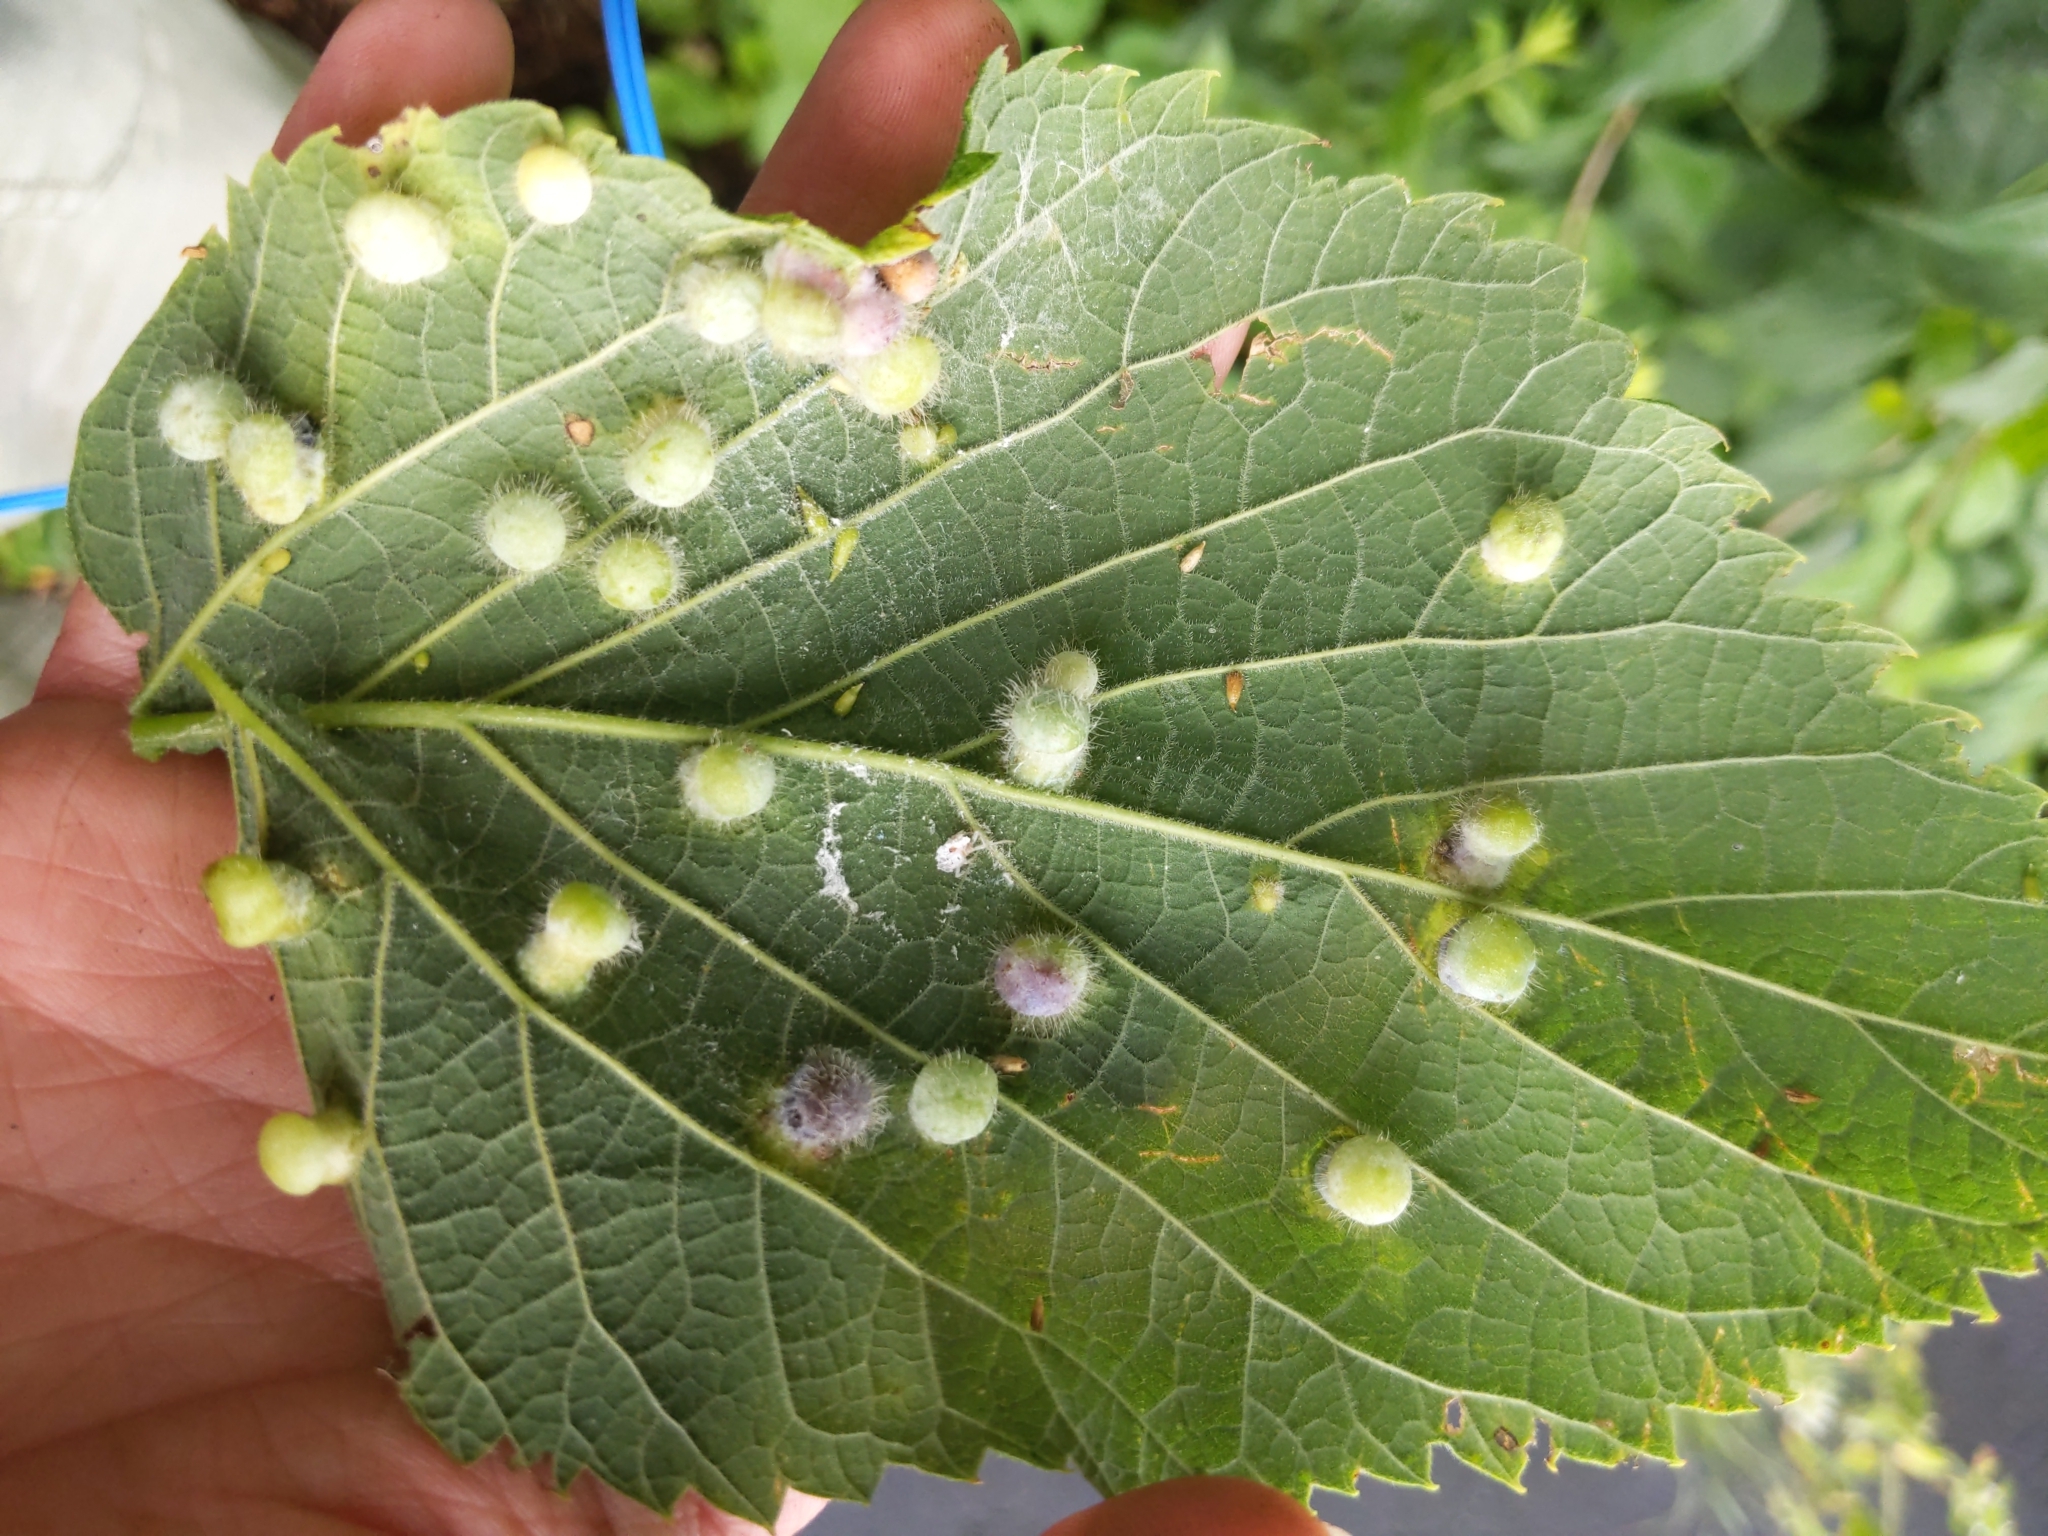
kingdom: Animalia
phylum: Arthropoda
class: Insecta
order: Hemiptera
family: Aphalaridae
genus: Pachypsylla
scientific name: Pachypsylla celtidismamma
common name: Hackberry nipplegall psyllid
